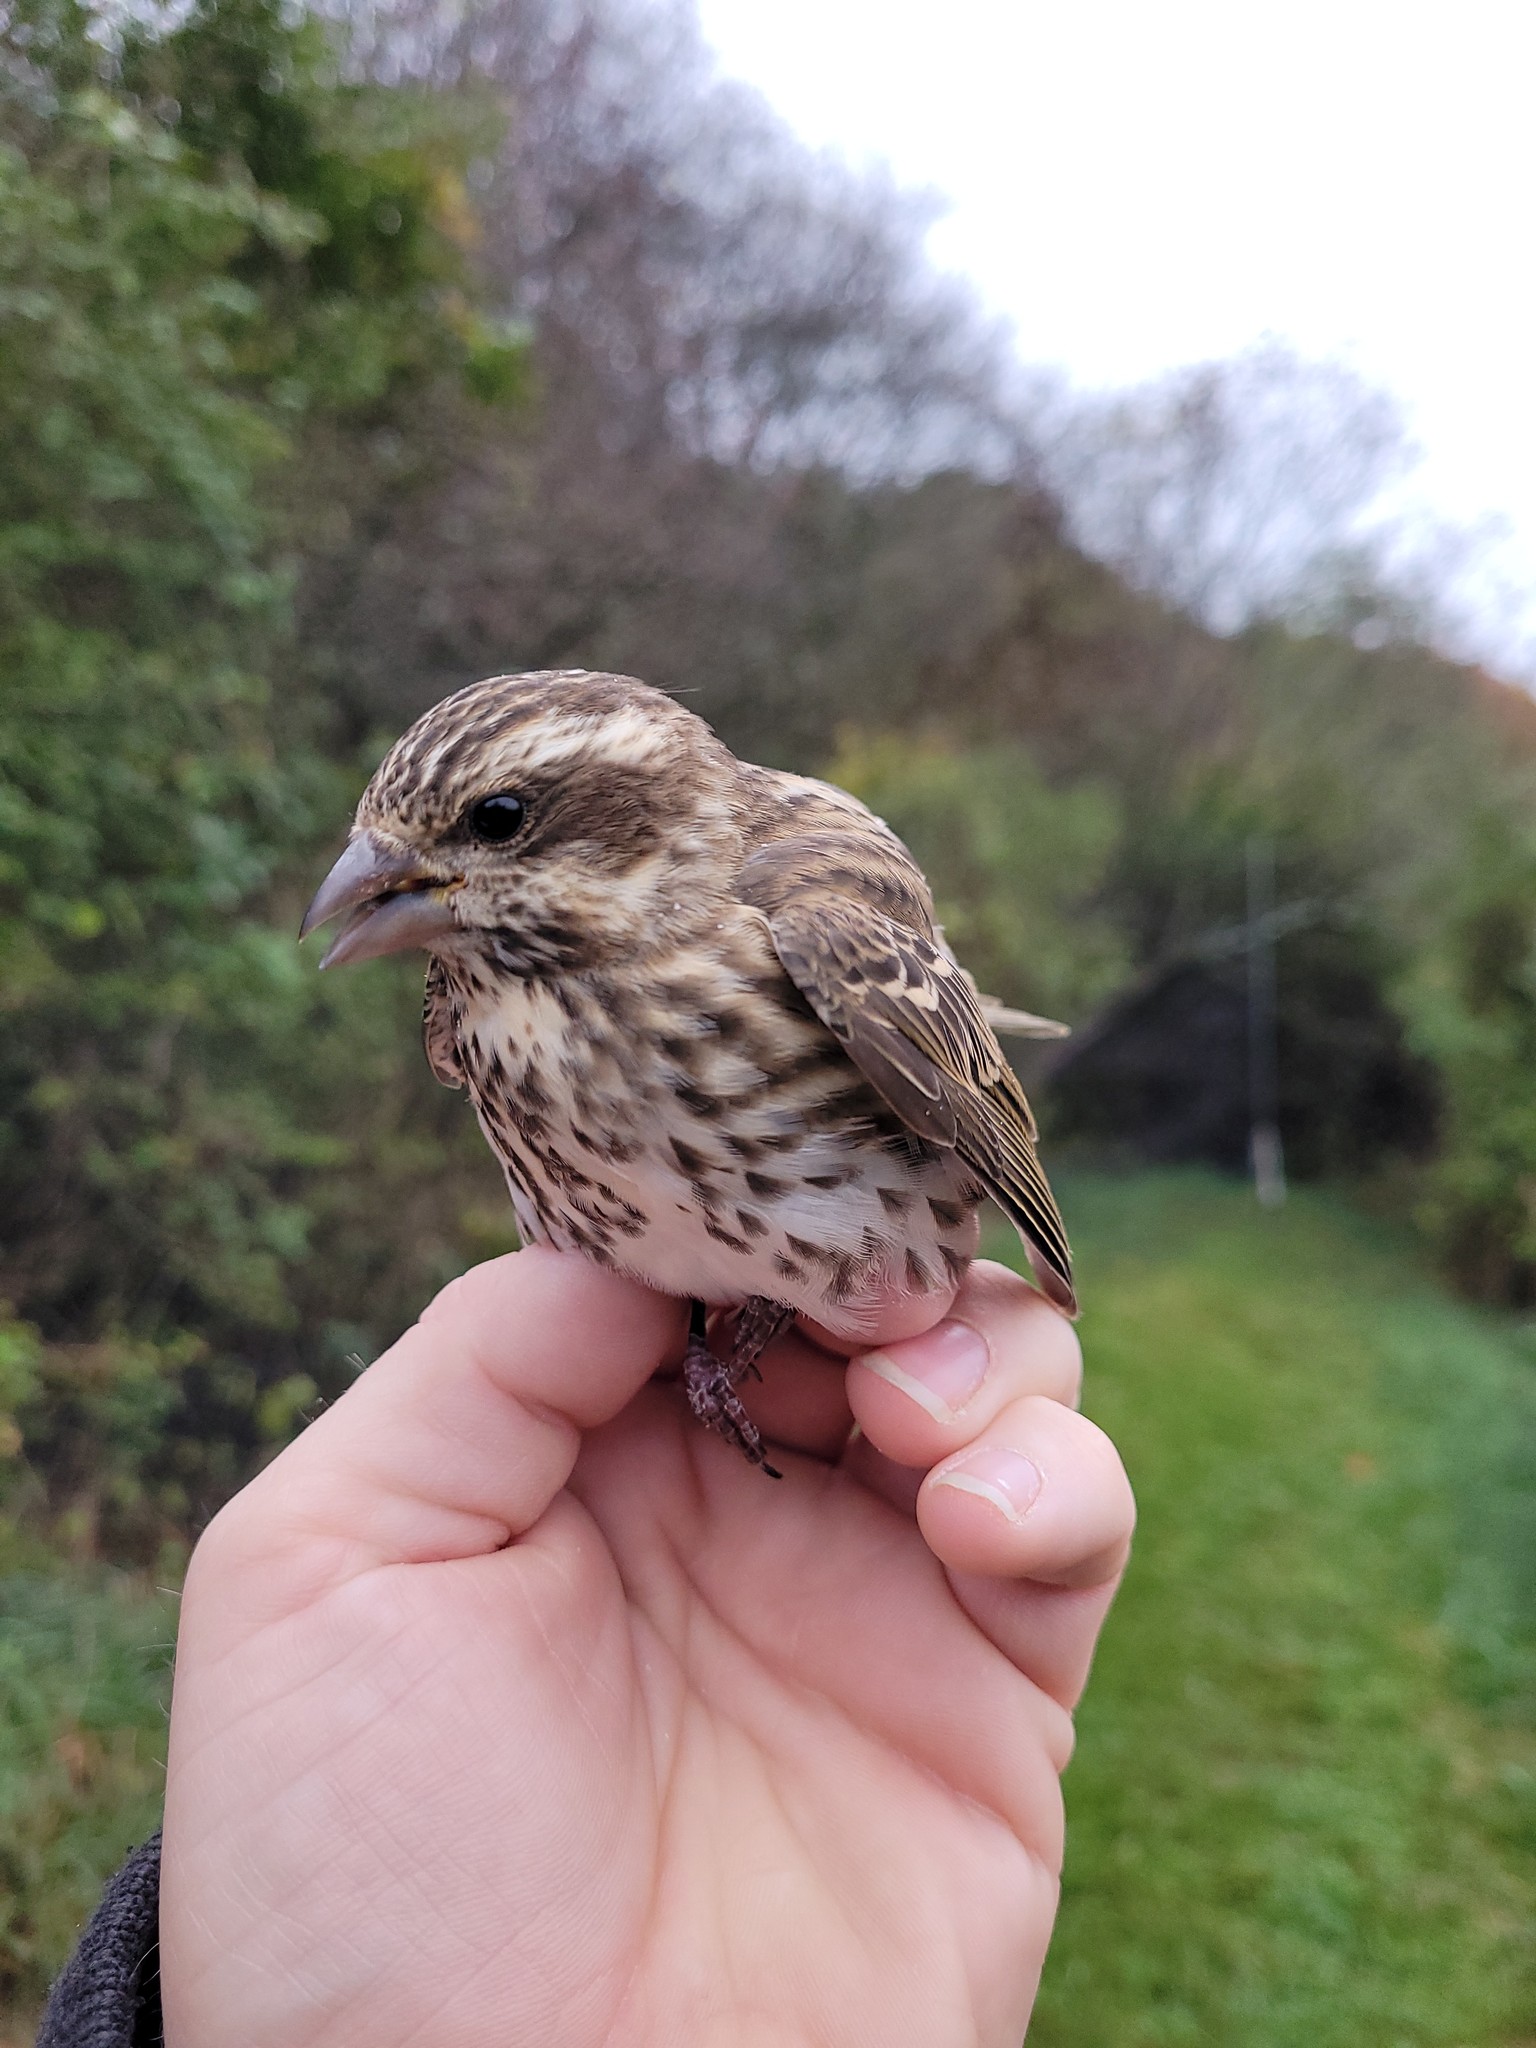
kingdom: Animalia
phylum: Chordata
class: Aves
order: Passeriformes
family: Fringillidae
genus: Haemorhous
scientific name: Haemorhous purpureus
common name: Purple finch
